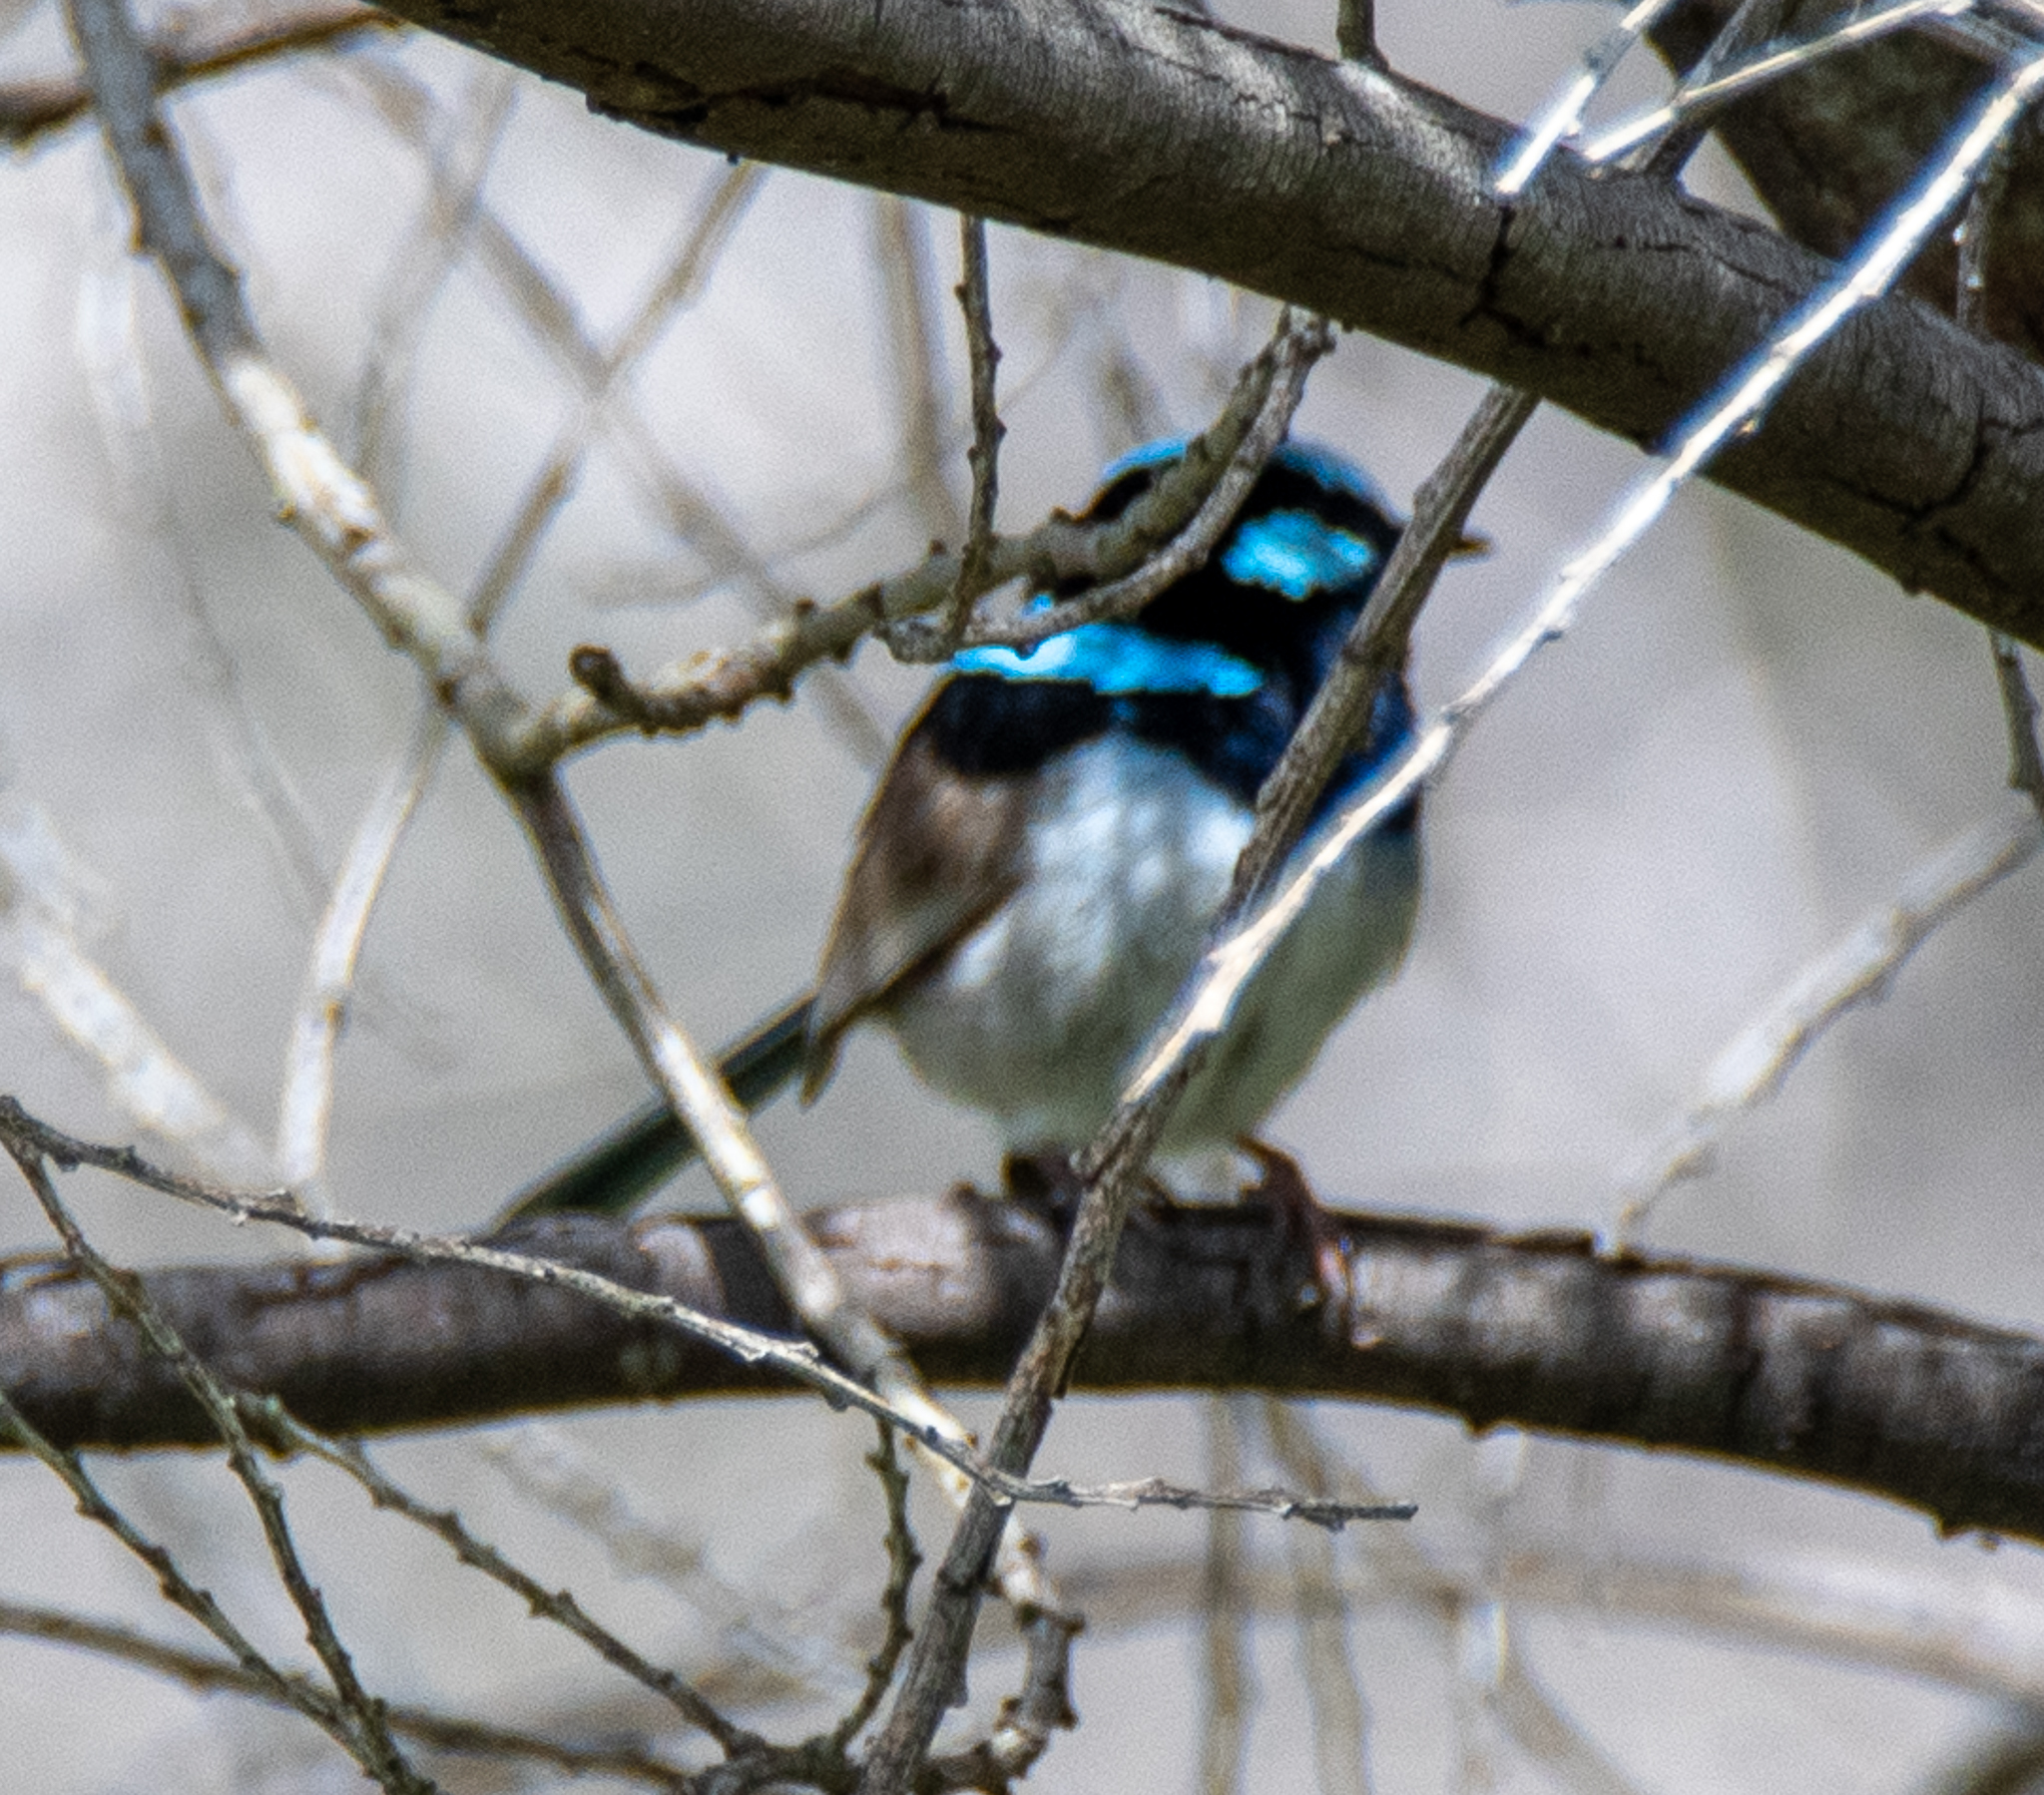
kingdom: Animalia
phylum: Chordata
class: Aves
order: Passeriformes
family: Maluridae
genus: Malurus
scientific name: Malurus cyaneus
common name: Superb fairywren
